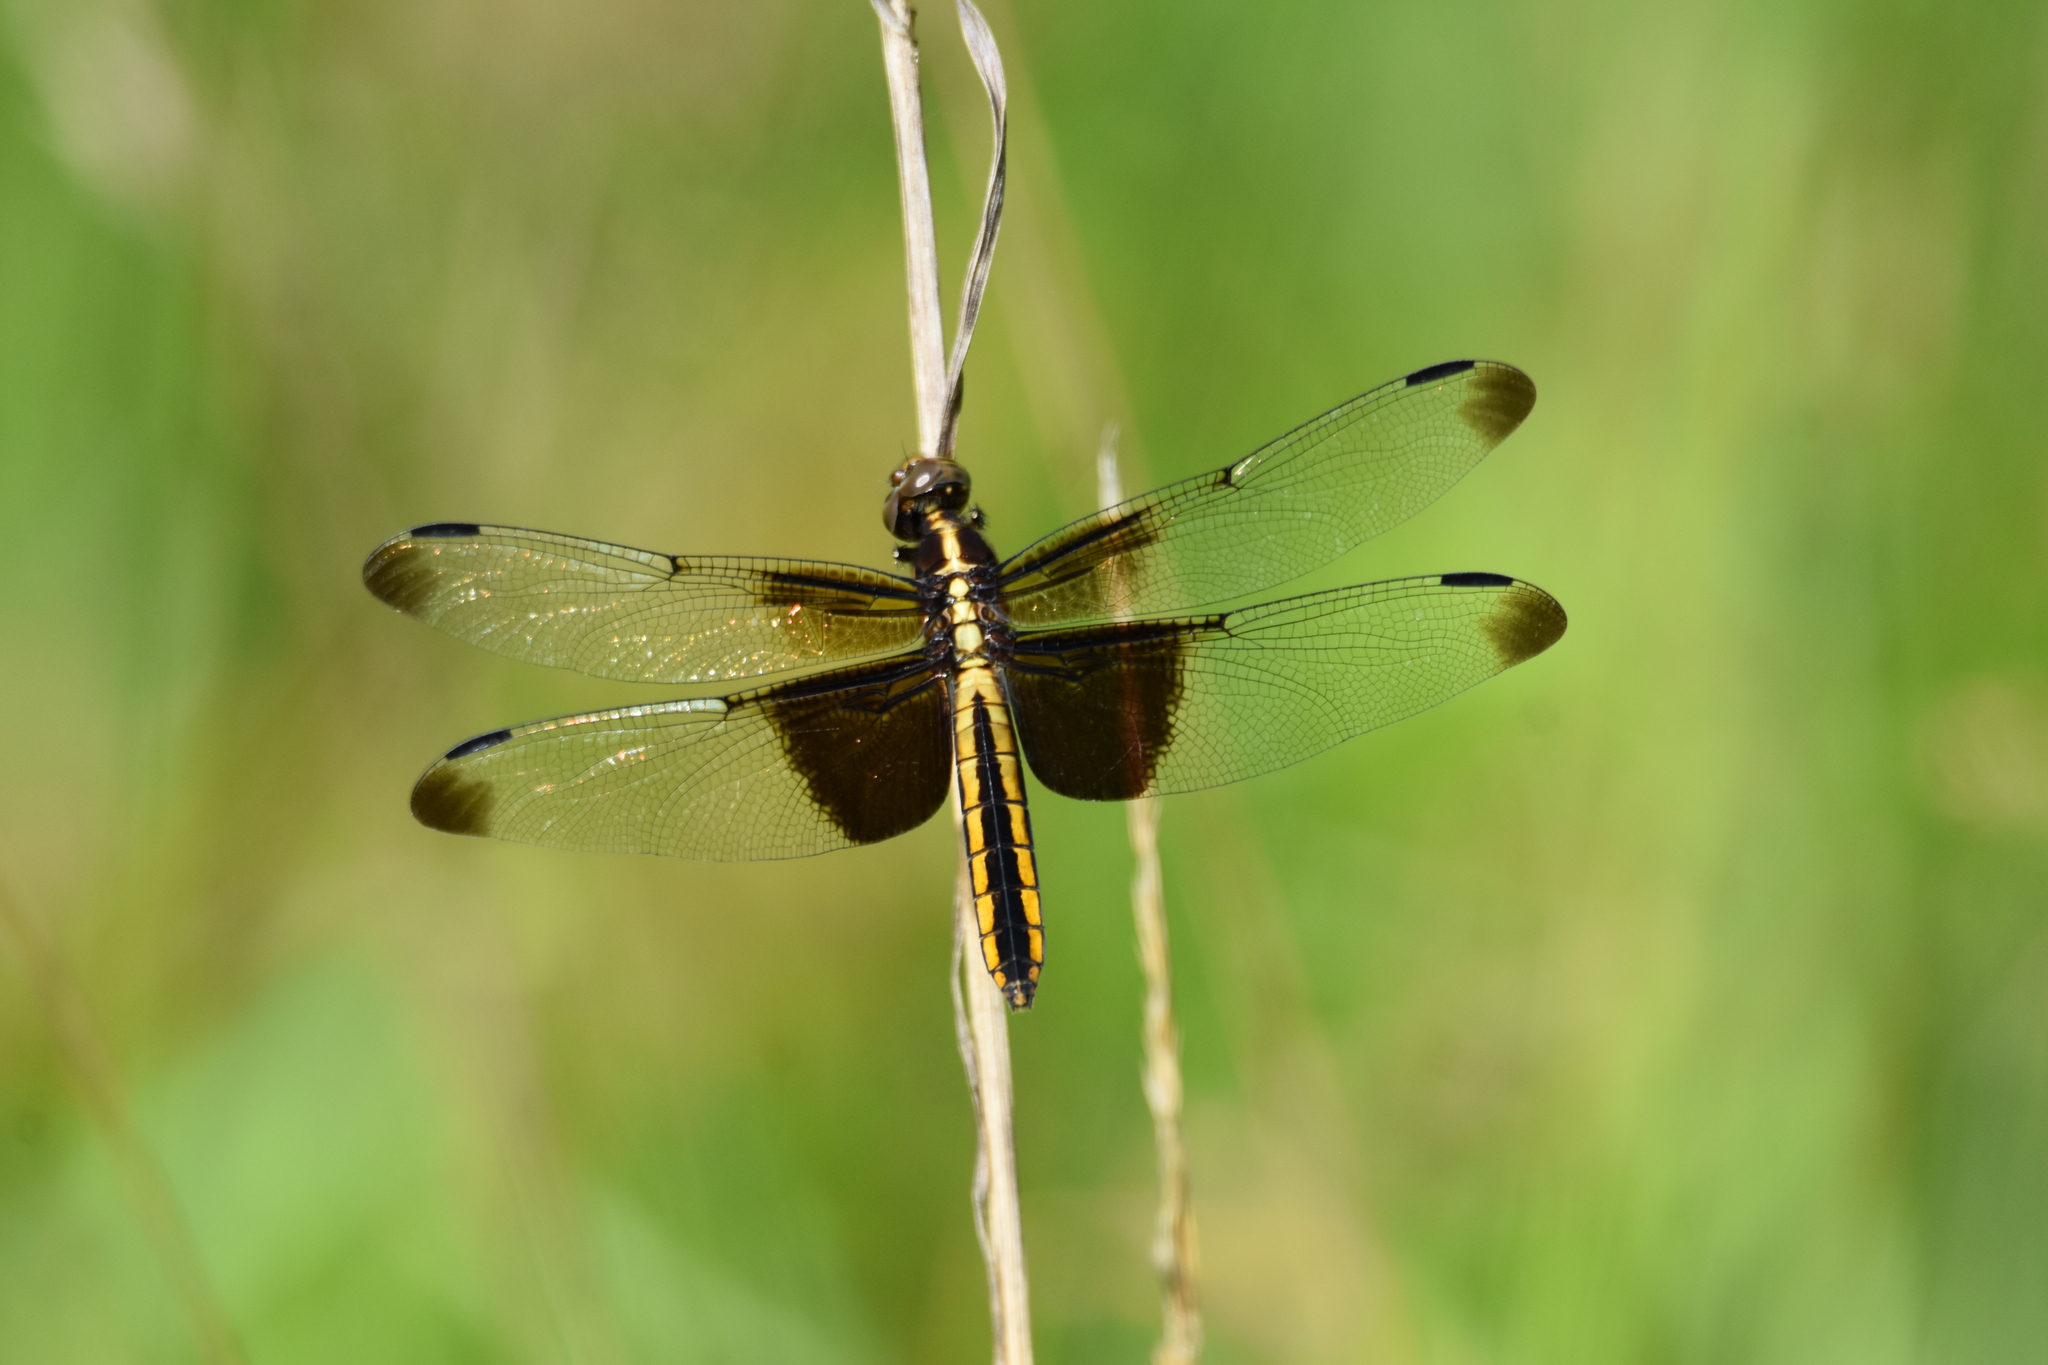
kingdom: Animalia
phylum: Arthropoda
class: Insecta
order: Odonata
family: Libellulidae
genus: Libellula
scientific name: Libellula luctuosa
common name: Widow skimmer
